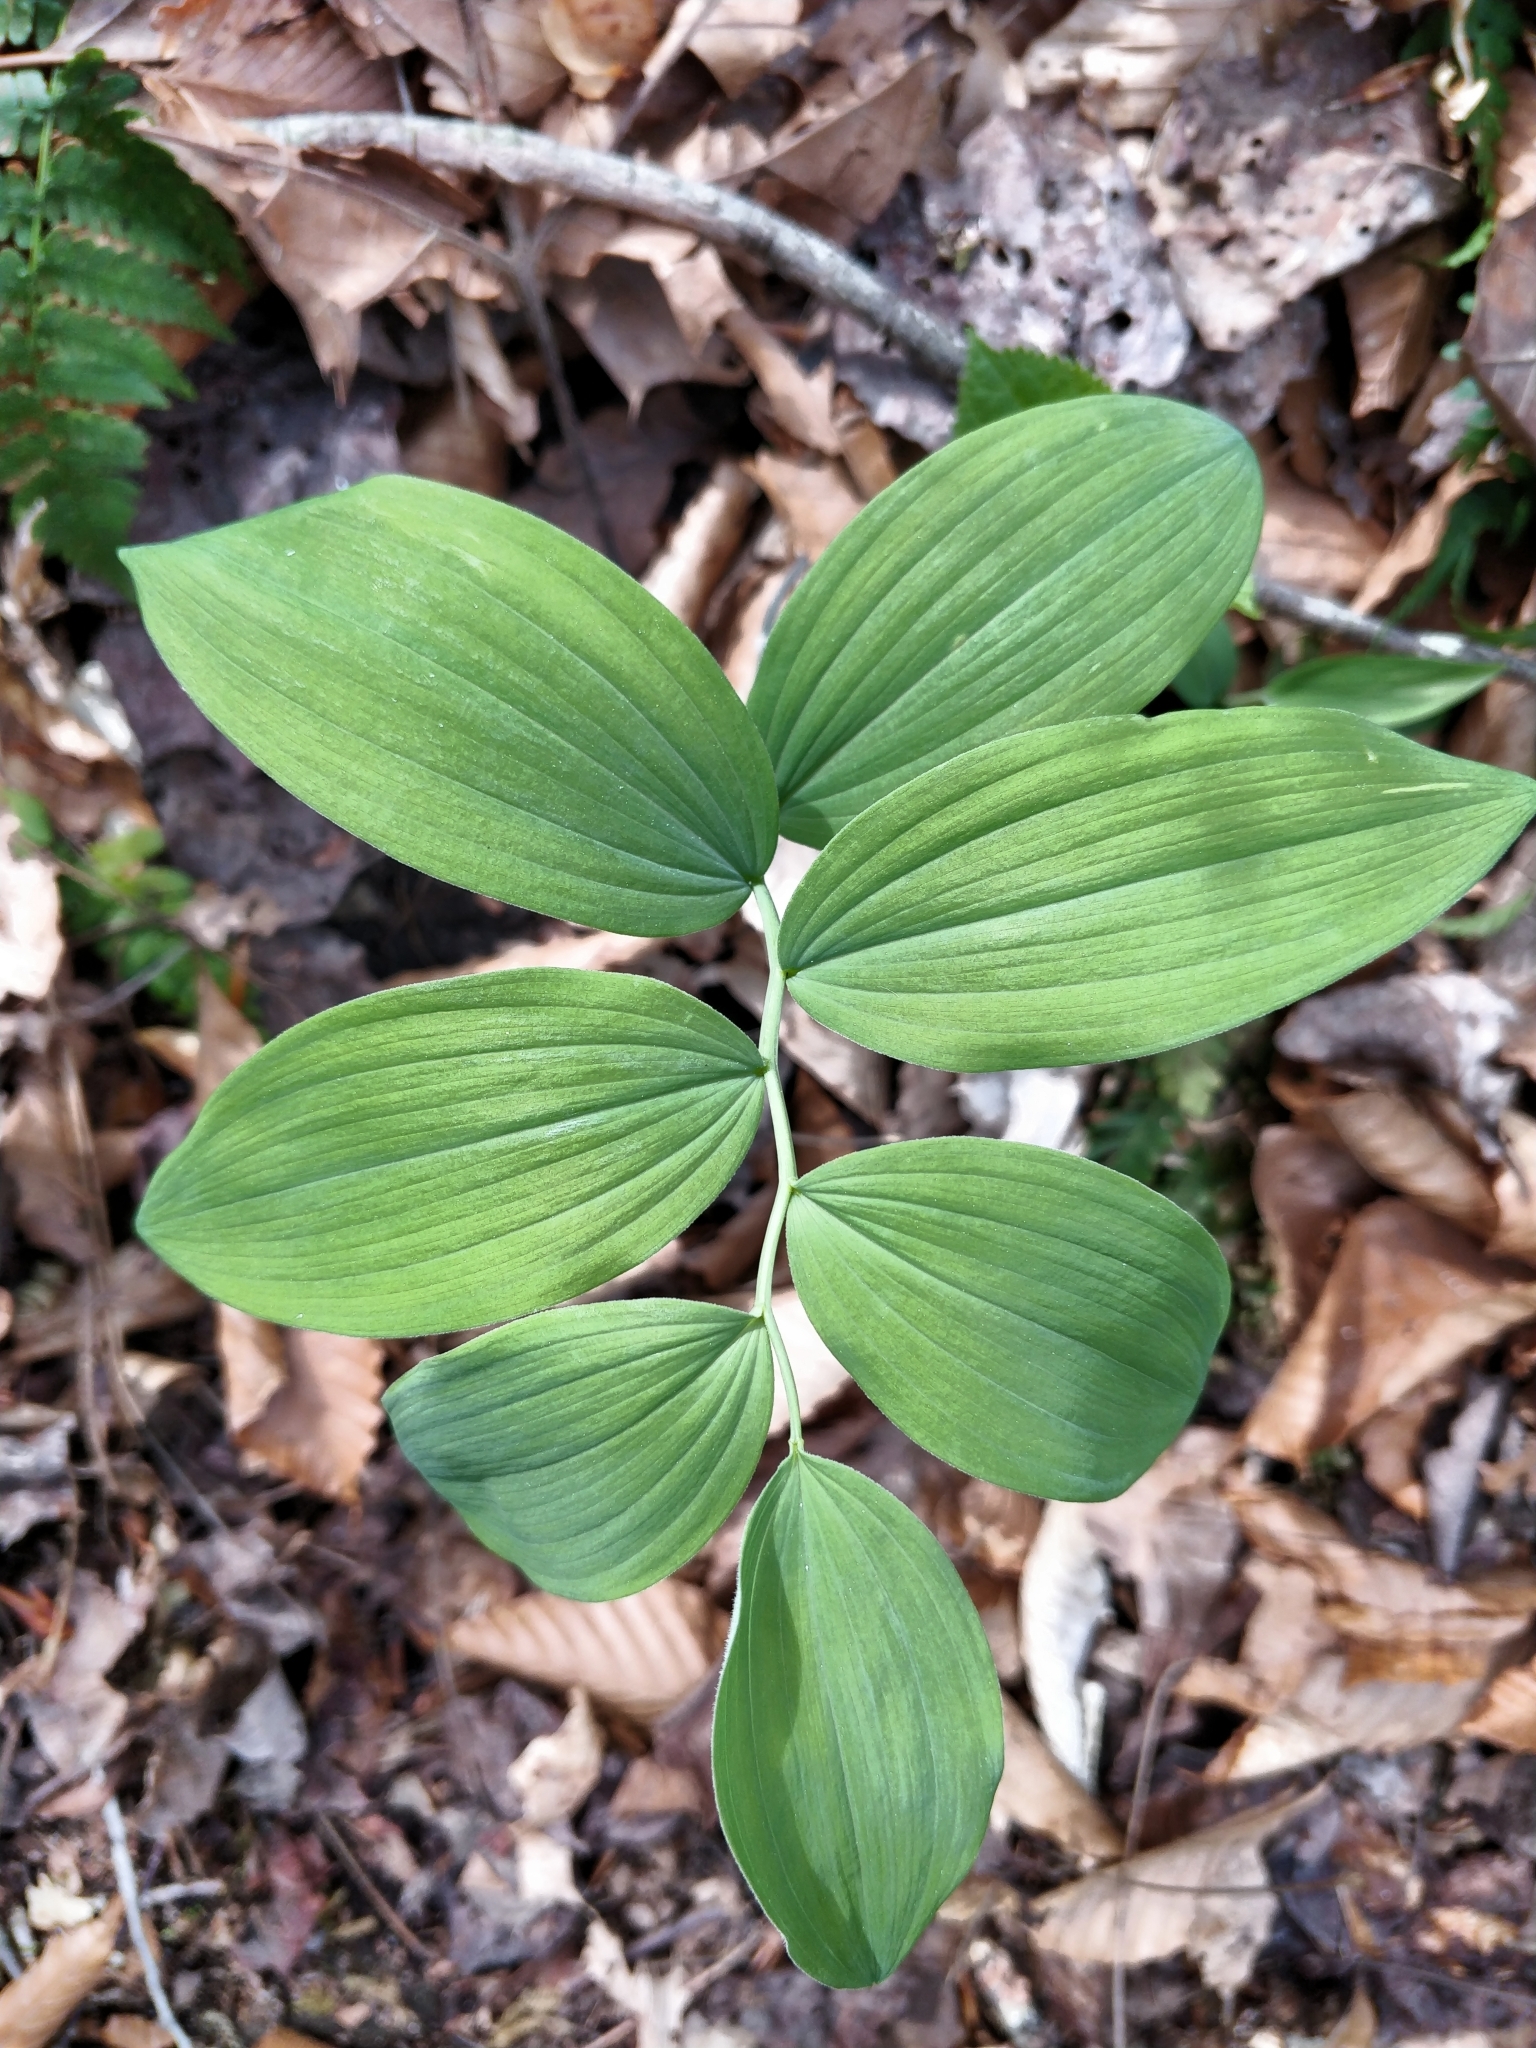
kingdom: Plantae
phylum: Tracheophyta
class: Liliopsida
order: Asparagales
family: Asparagaceae
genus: Polygonatum
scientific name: Polygonatum pubescens
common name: Downy solomon's seal
